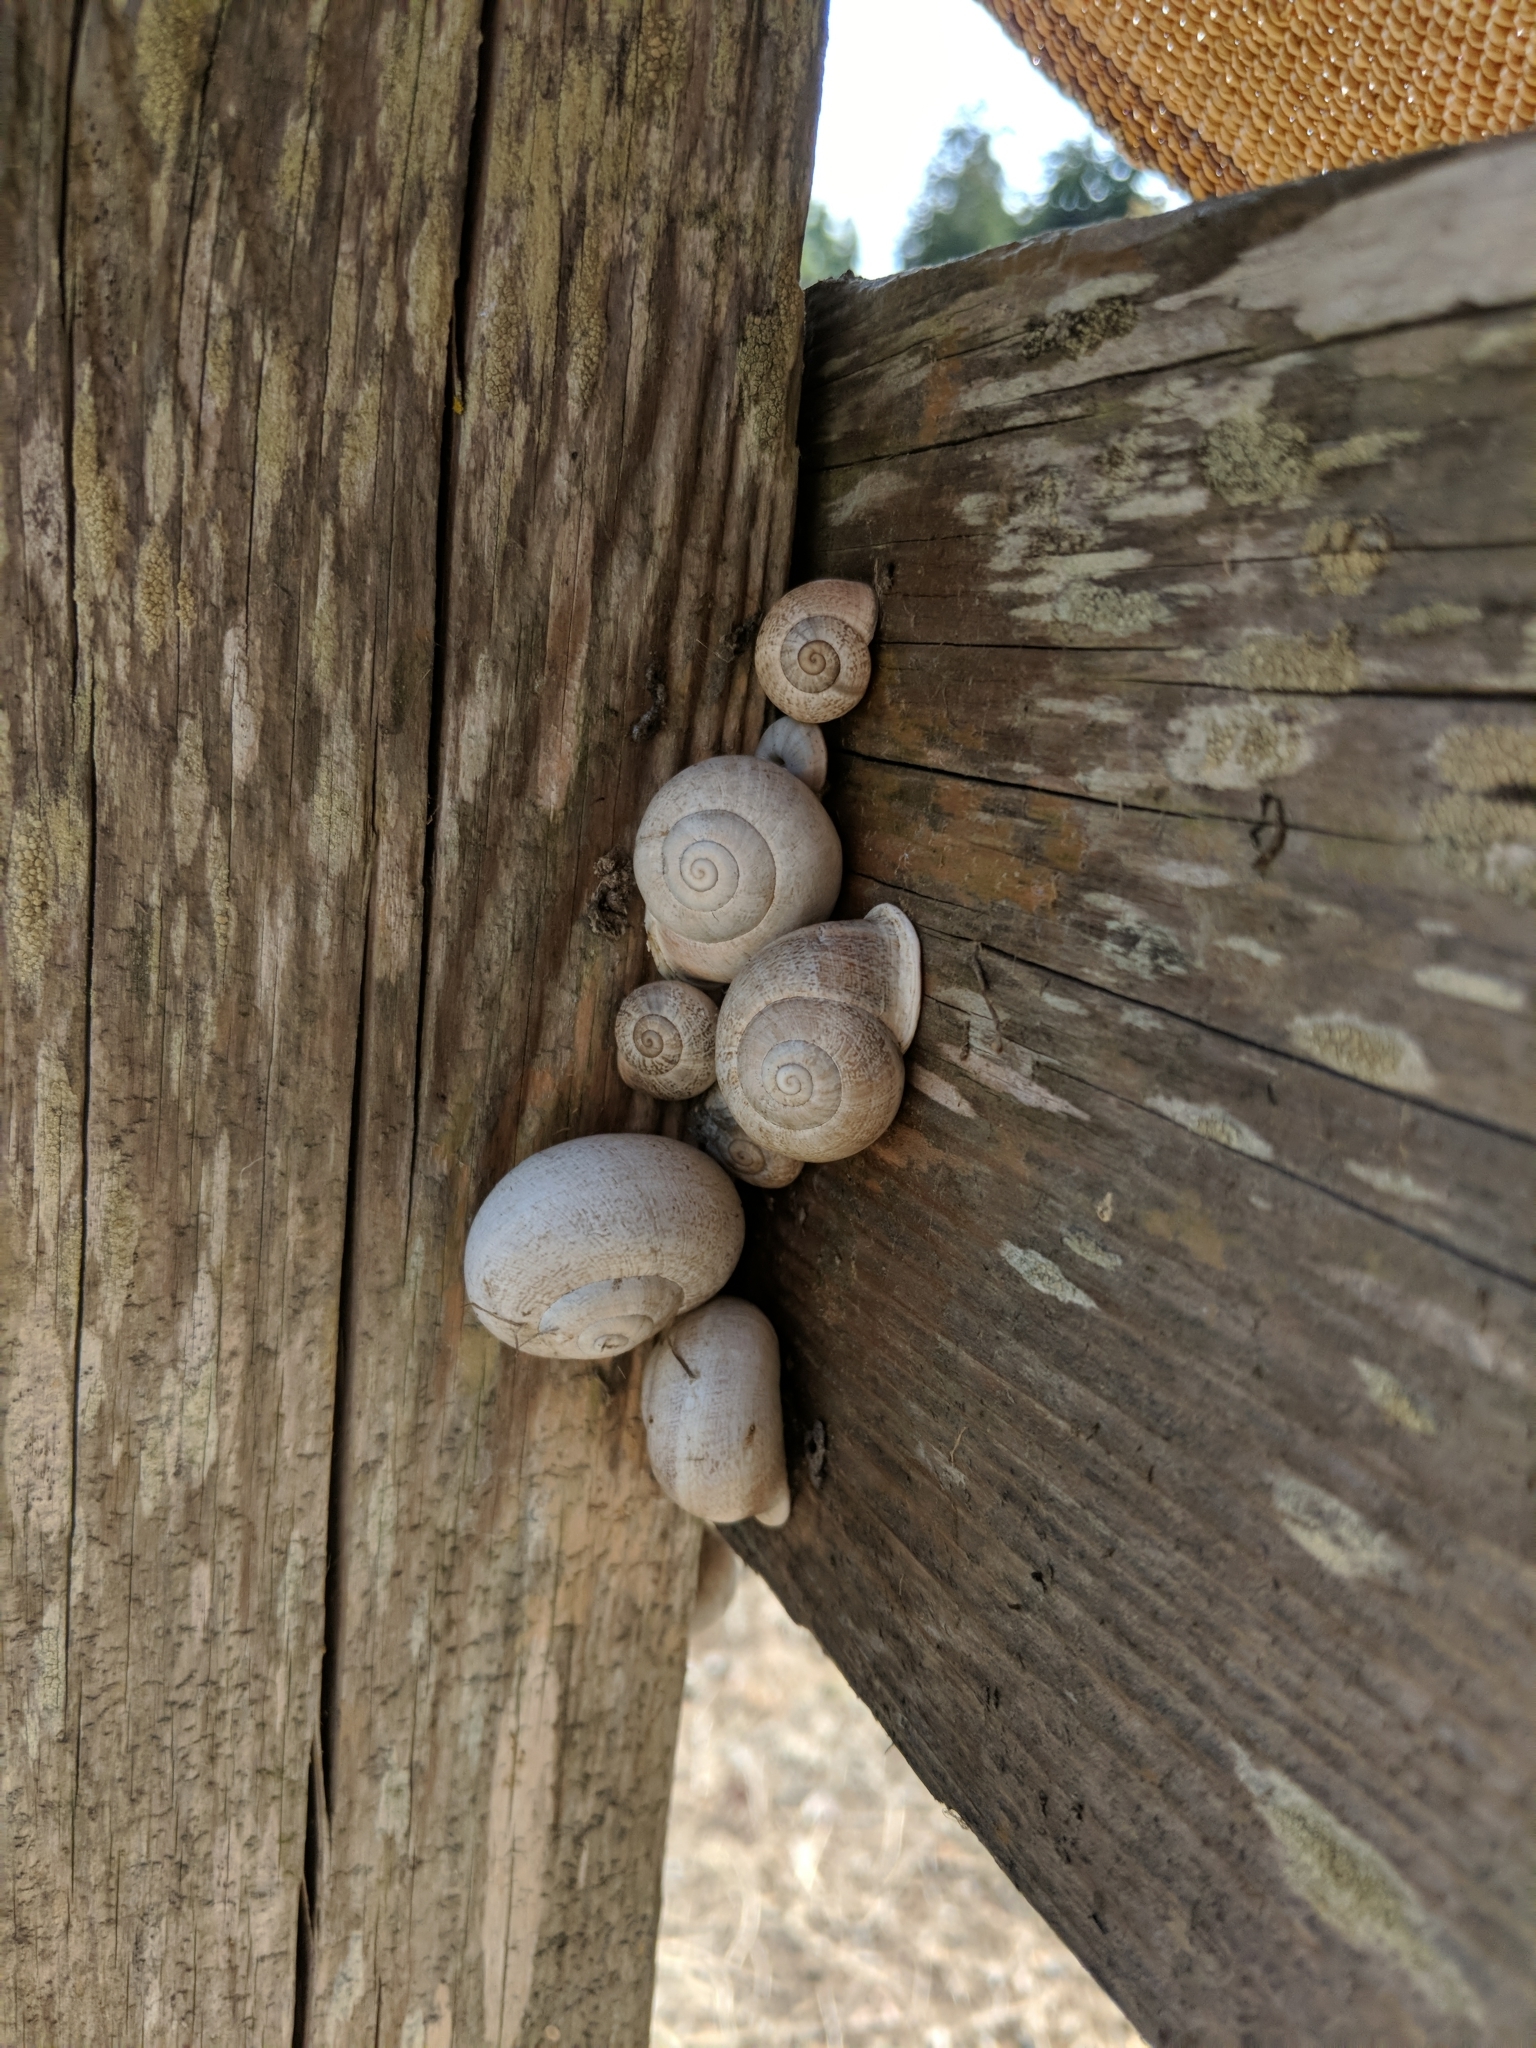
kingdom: Animalia
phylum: Mollusca
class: Gastropoda
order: Stylommatophora
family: Helicidae
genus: Otala
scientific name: Otala lactea
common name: Milk snail
